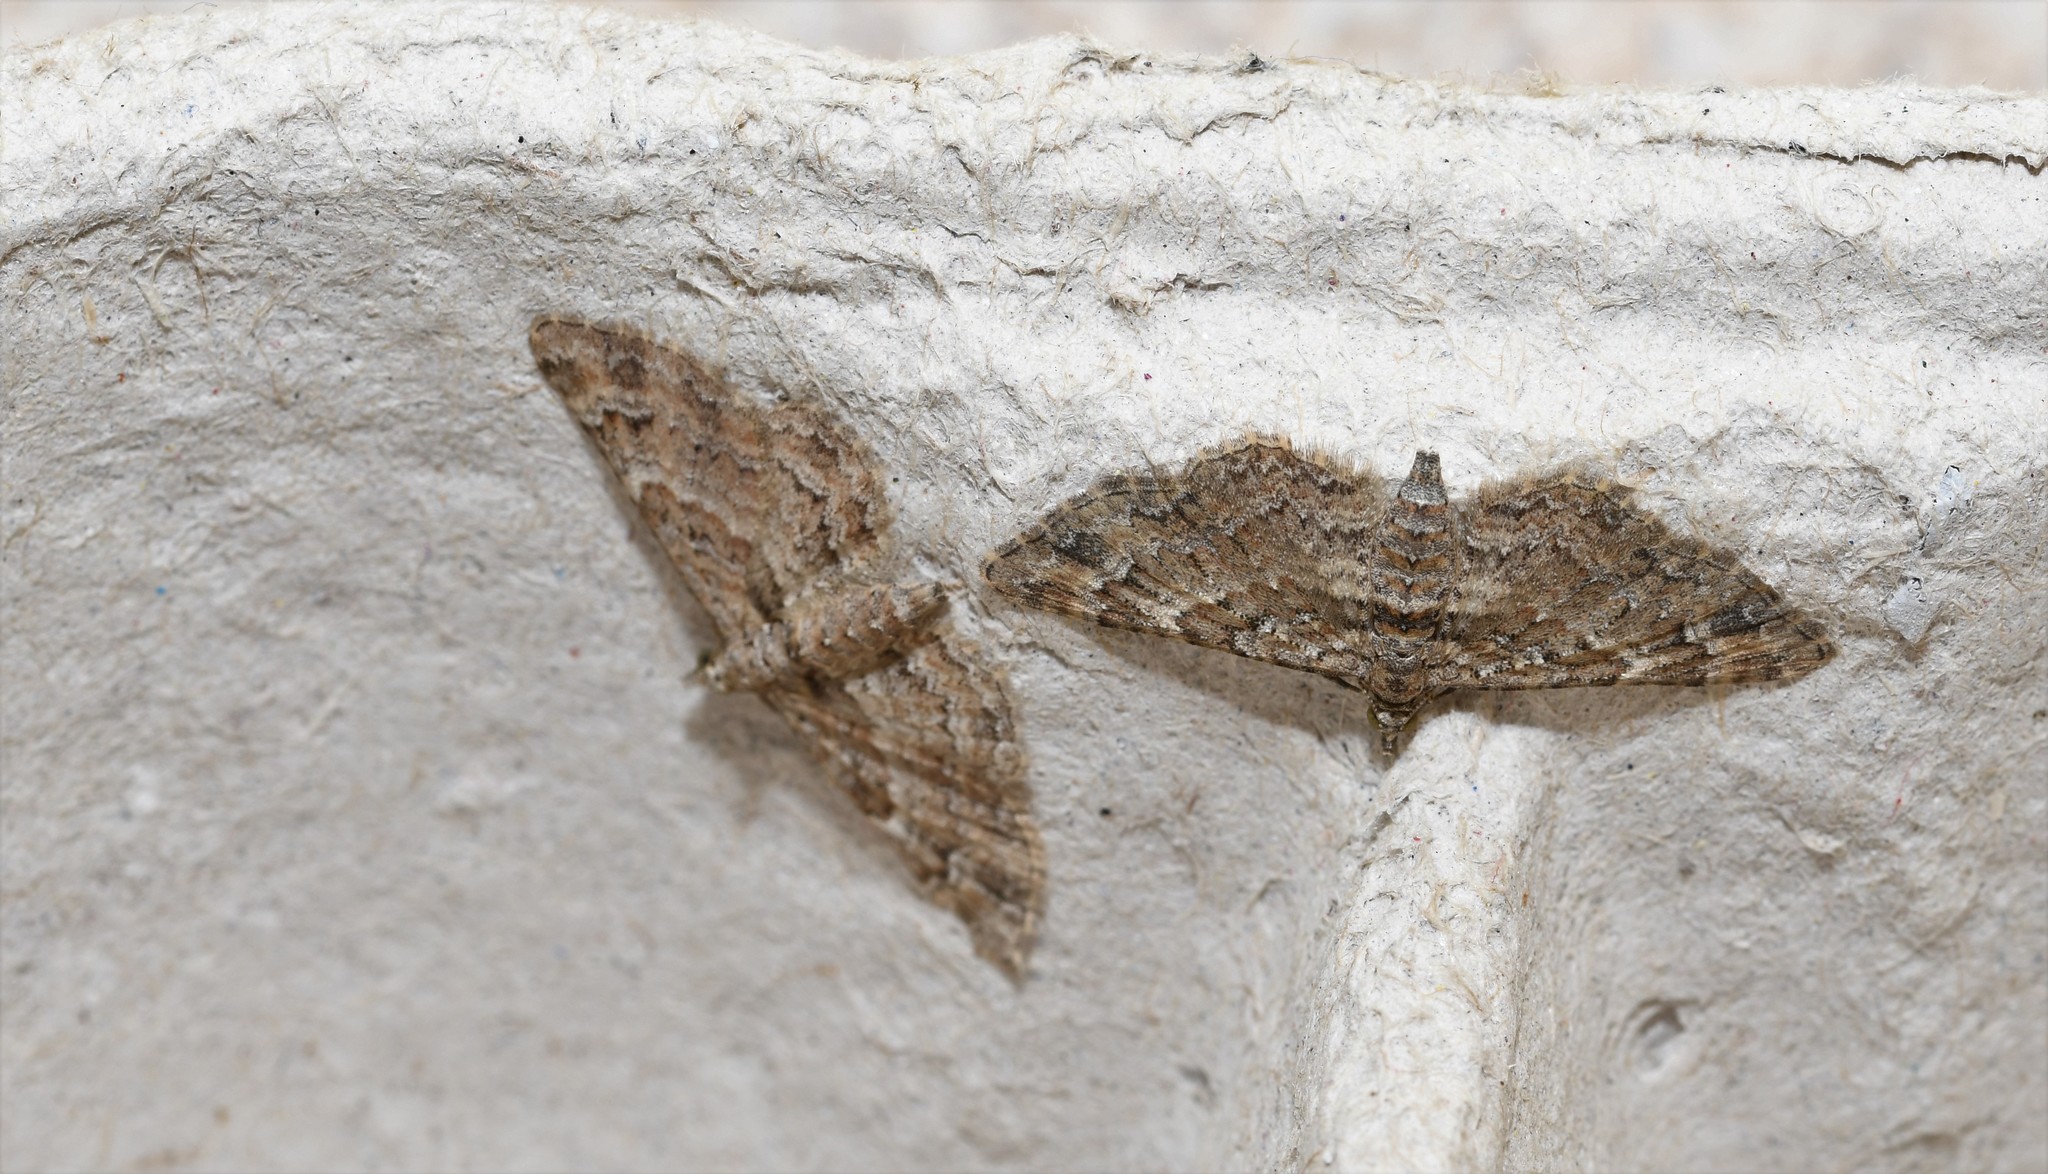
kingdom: Animalia
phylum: Arthropoda
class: Insecta
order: Lepidoptera
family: Geometridae
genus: Gymnoscelis
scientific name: Gymnoscelis rufifasciata
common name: Double-striped pug
